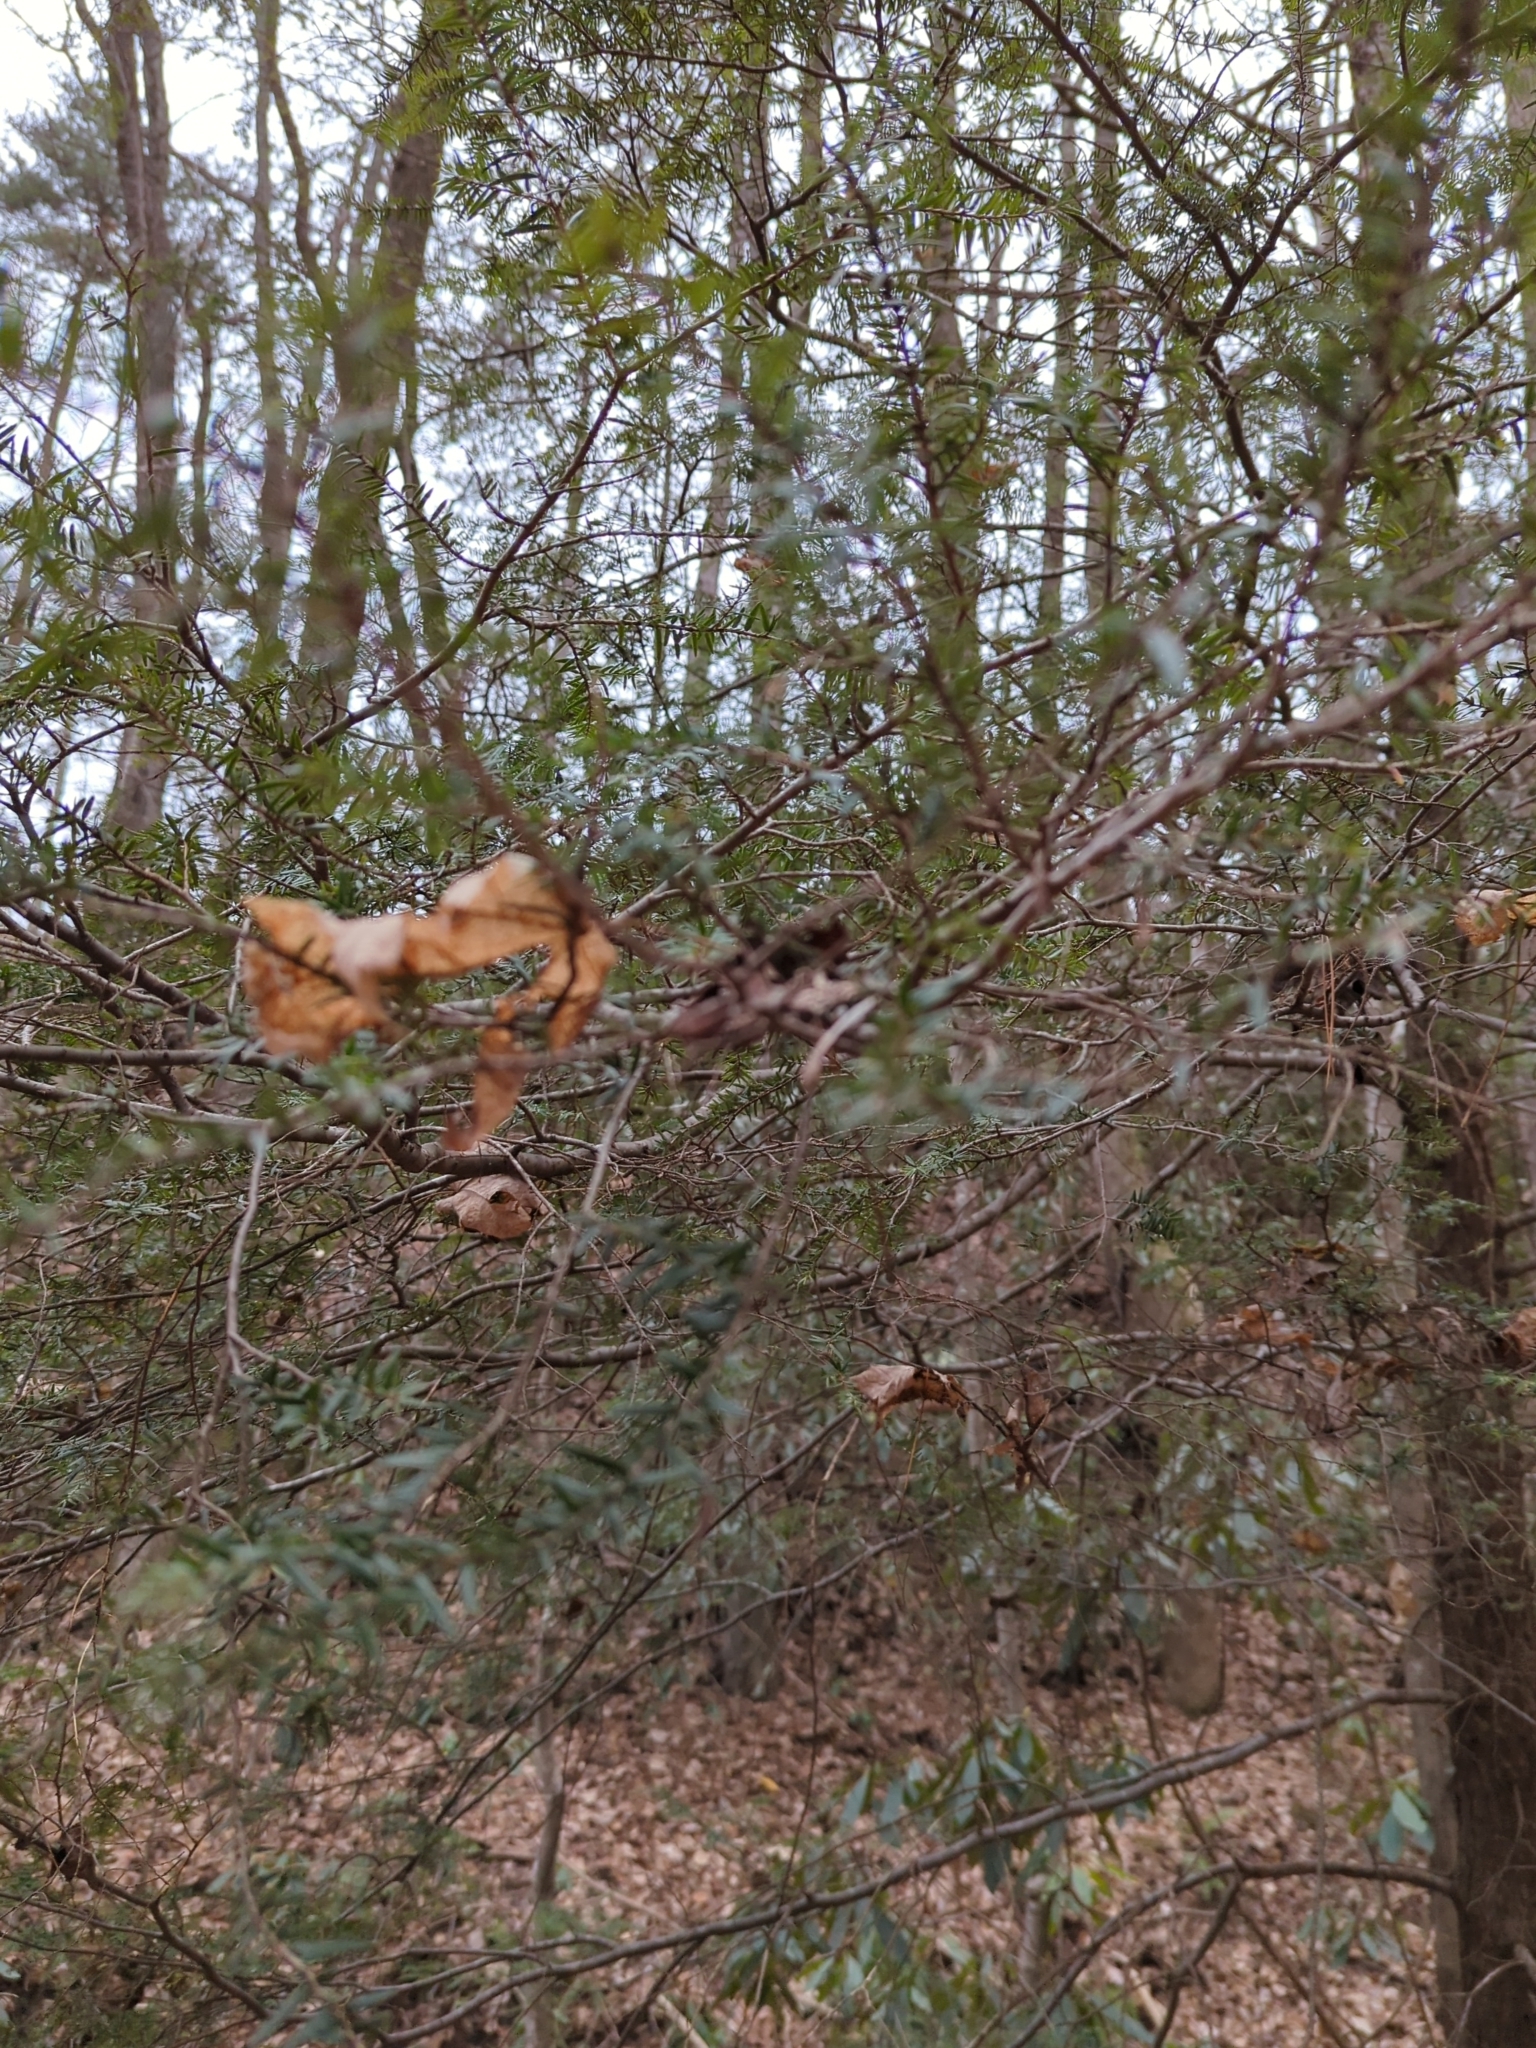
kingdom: Plantae
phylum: Tracheophyta
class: Pinopsida
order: Pinales
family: Pinaceae
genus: Tsuga
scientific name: Tsuga caroliniana
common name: Carolina hemlock
